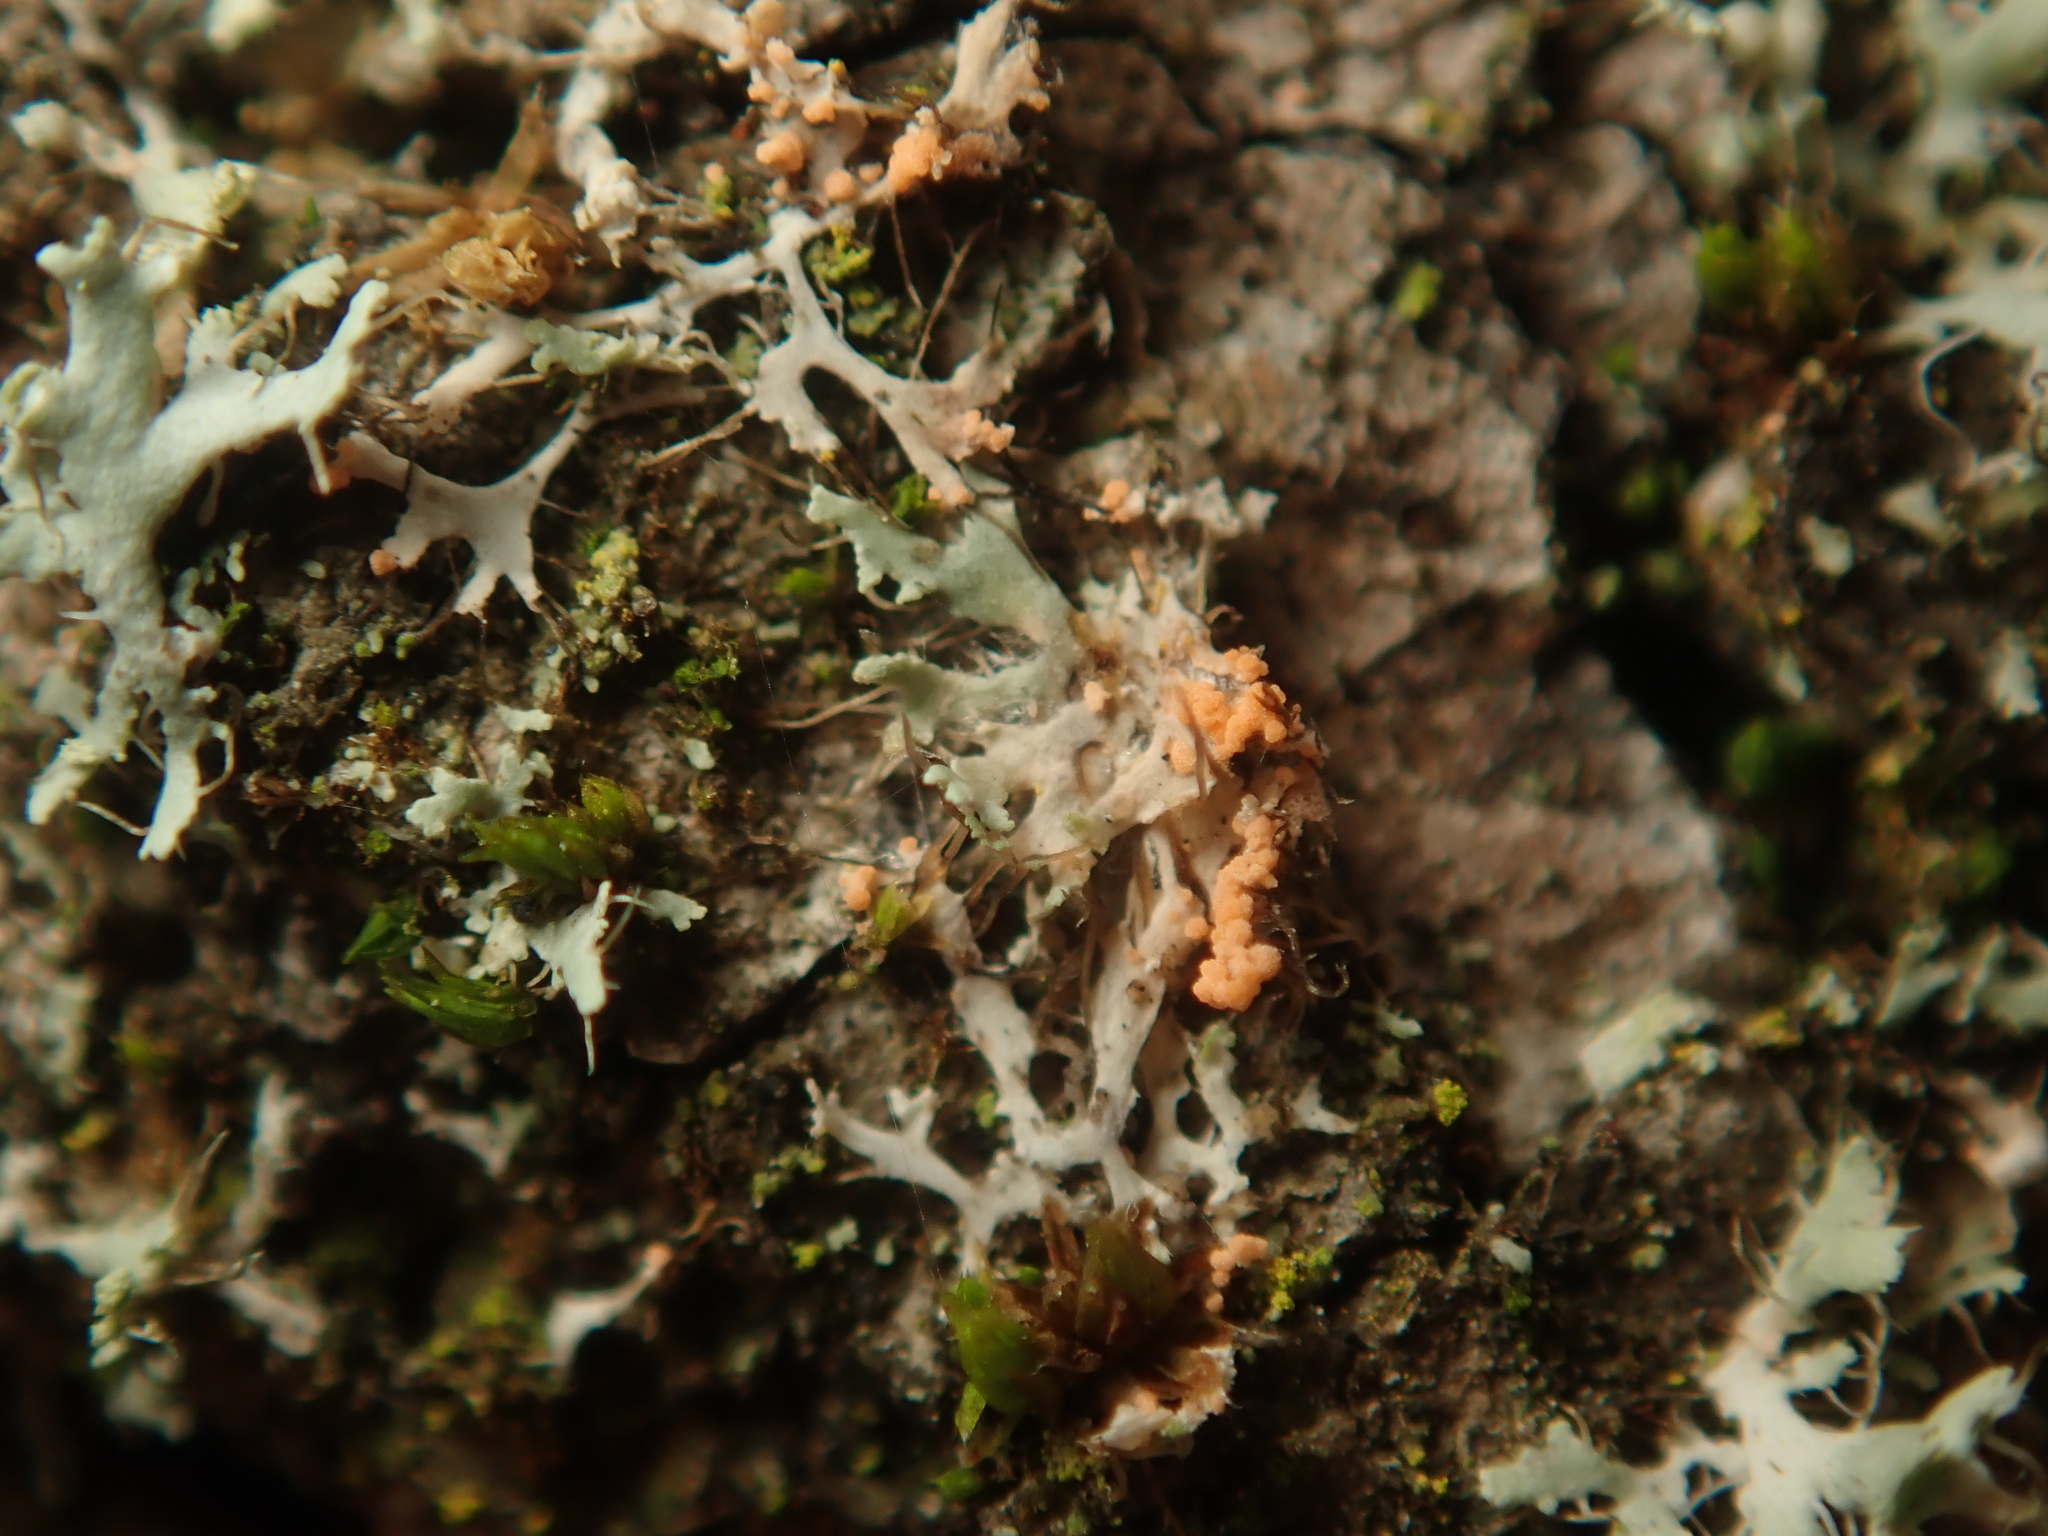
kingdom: Fungi
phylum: Basidiomycota
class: Agaricomycetes
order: Corticiales
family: Corticiaceae
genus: Erythricium
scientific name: Erythricium aurantiacum
